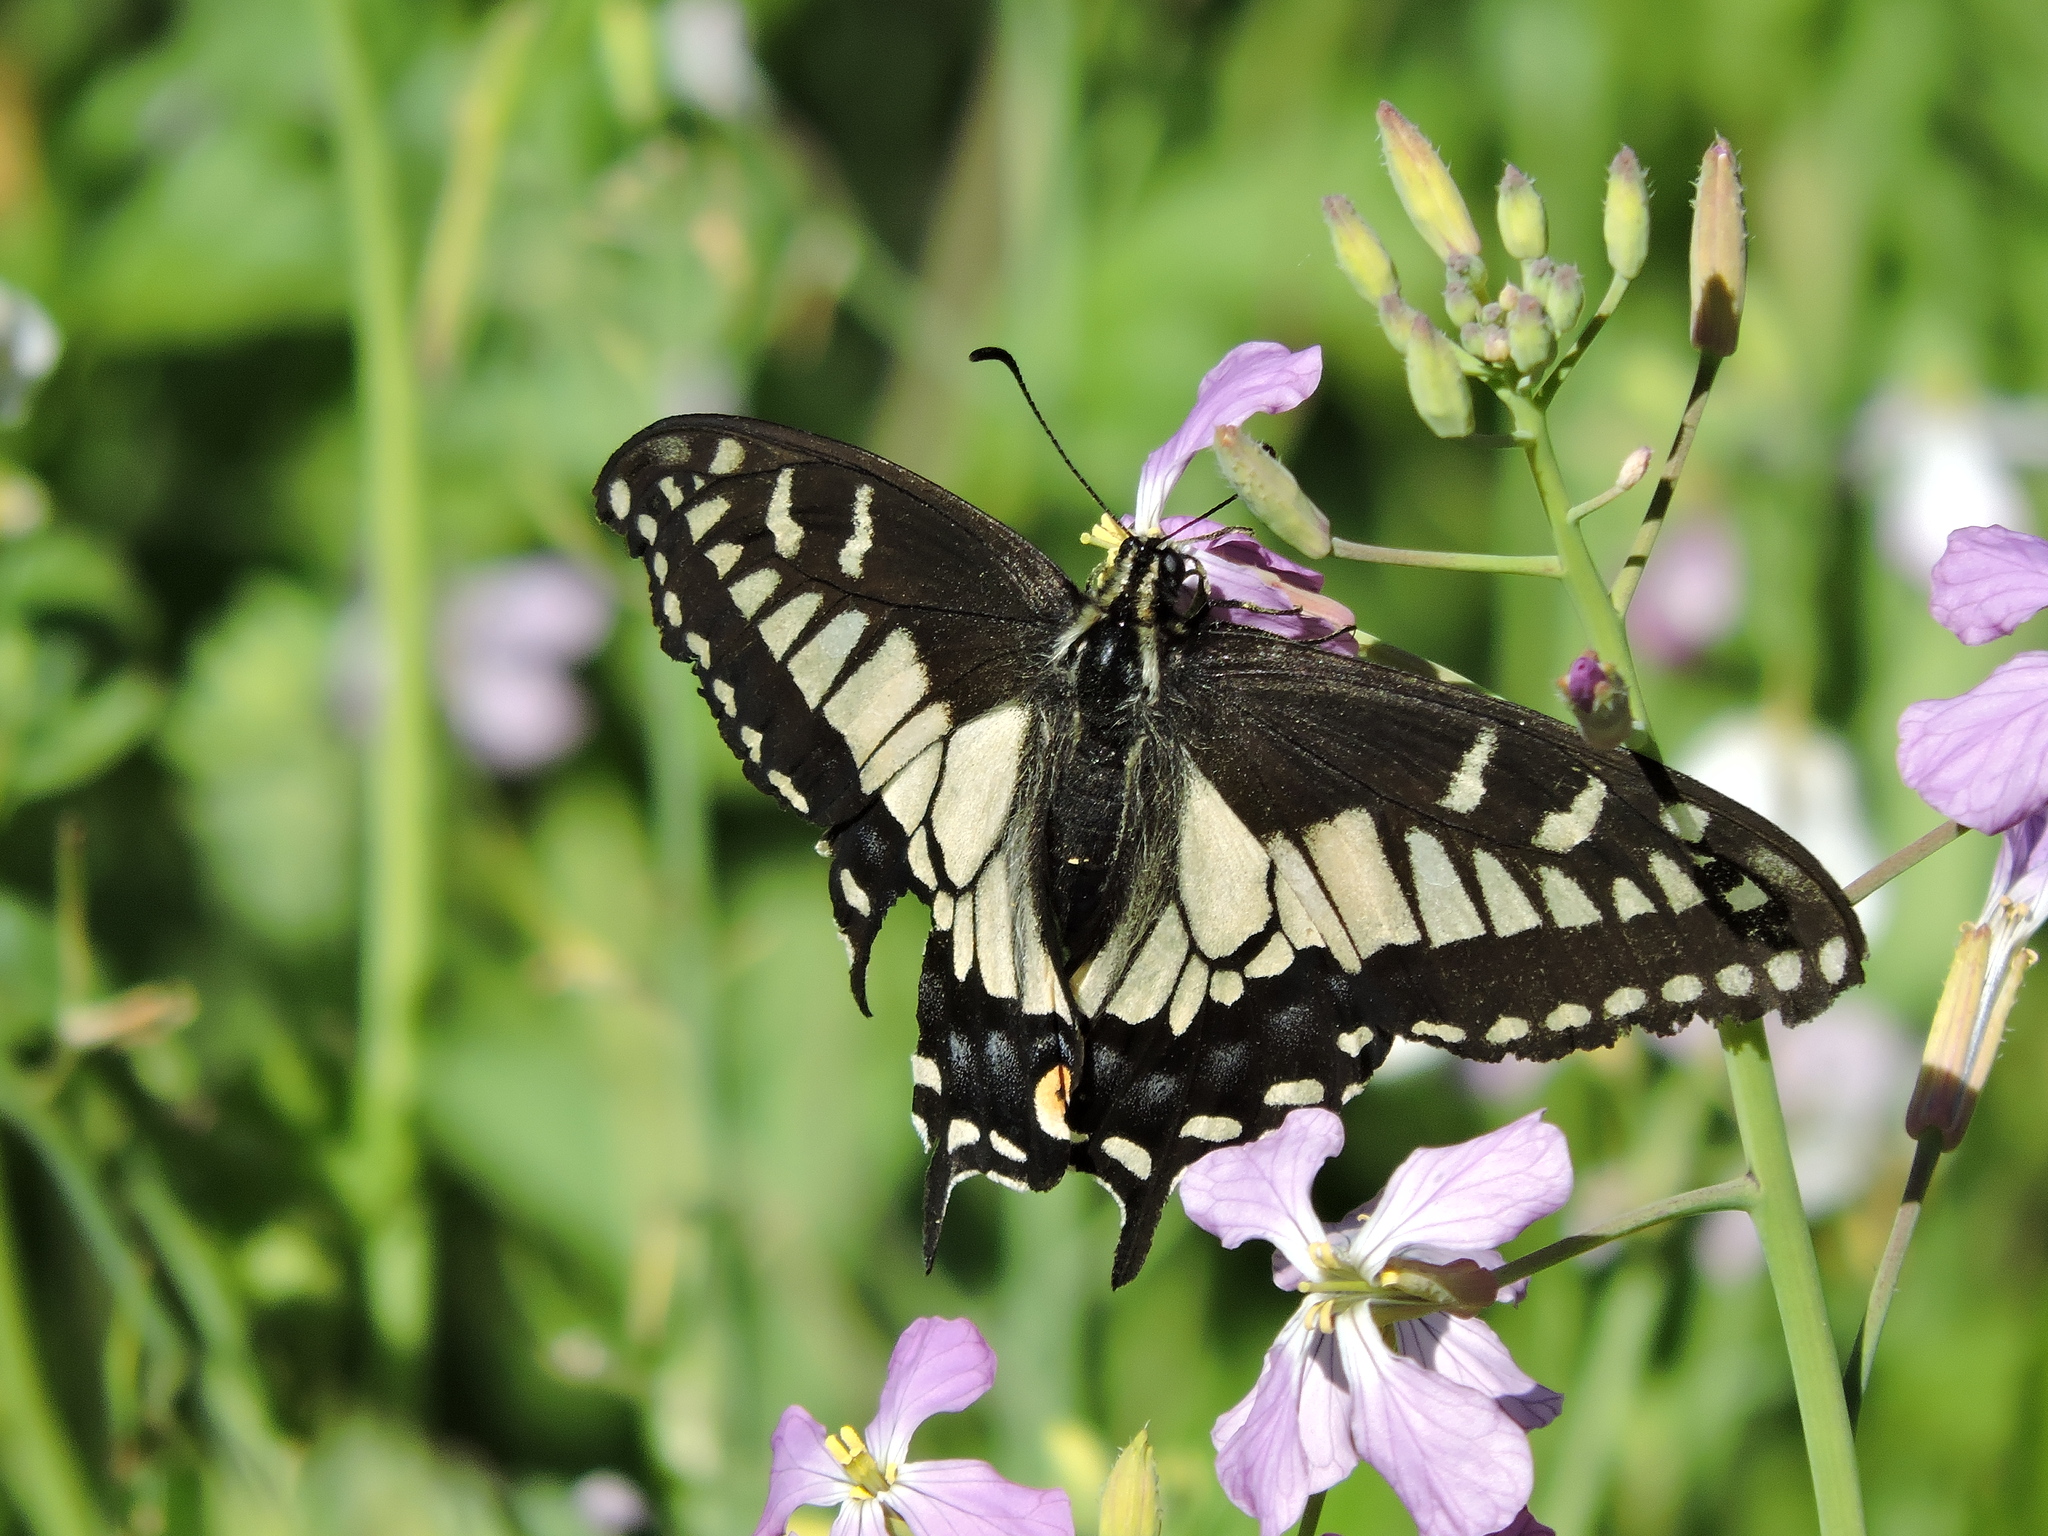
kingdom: Animalia
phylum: Arthropoda
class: Insecta
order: Lepidoptera
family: Papilionidae
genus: Papilio
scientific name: Papilio zelicaon
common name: Anise swallowtail
